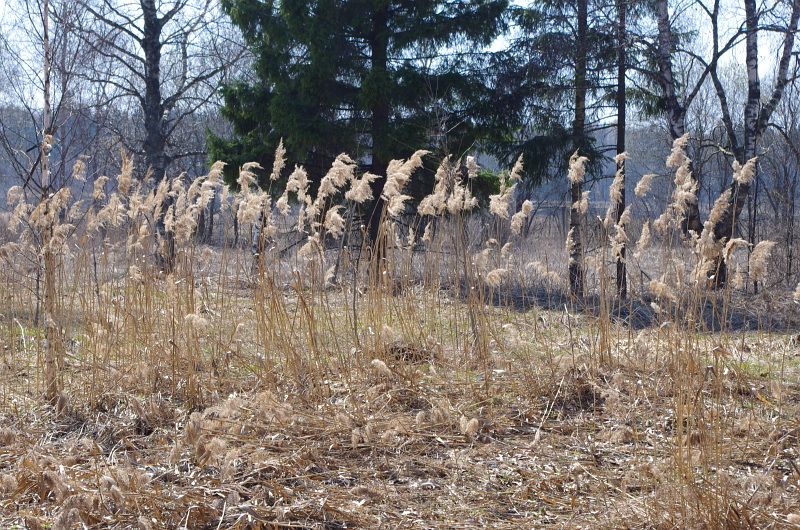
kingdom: Plantae
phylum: Tracheophyta
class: Liliopsida
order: Poales
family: Poaceae
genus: Phragmites
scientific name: Phragmites australis
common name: Common reed
